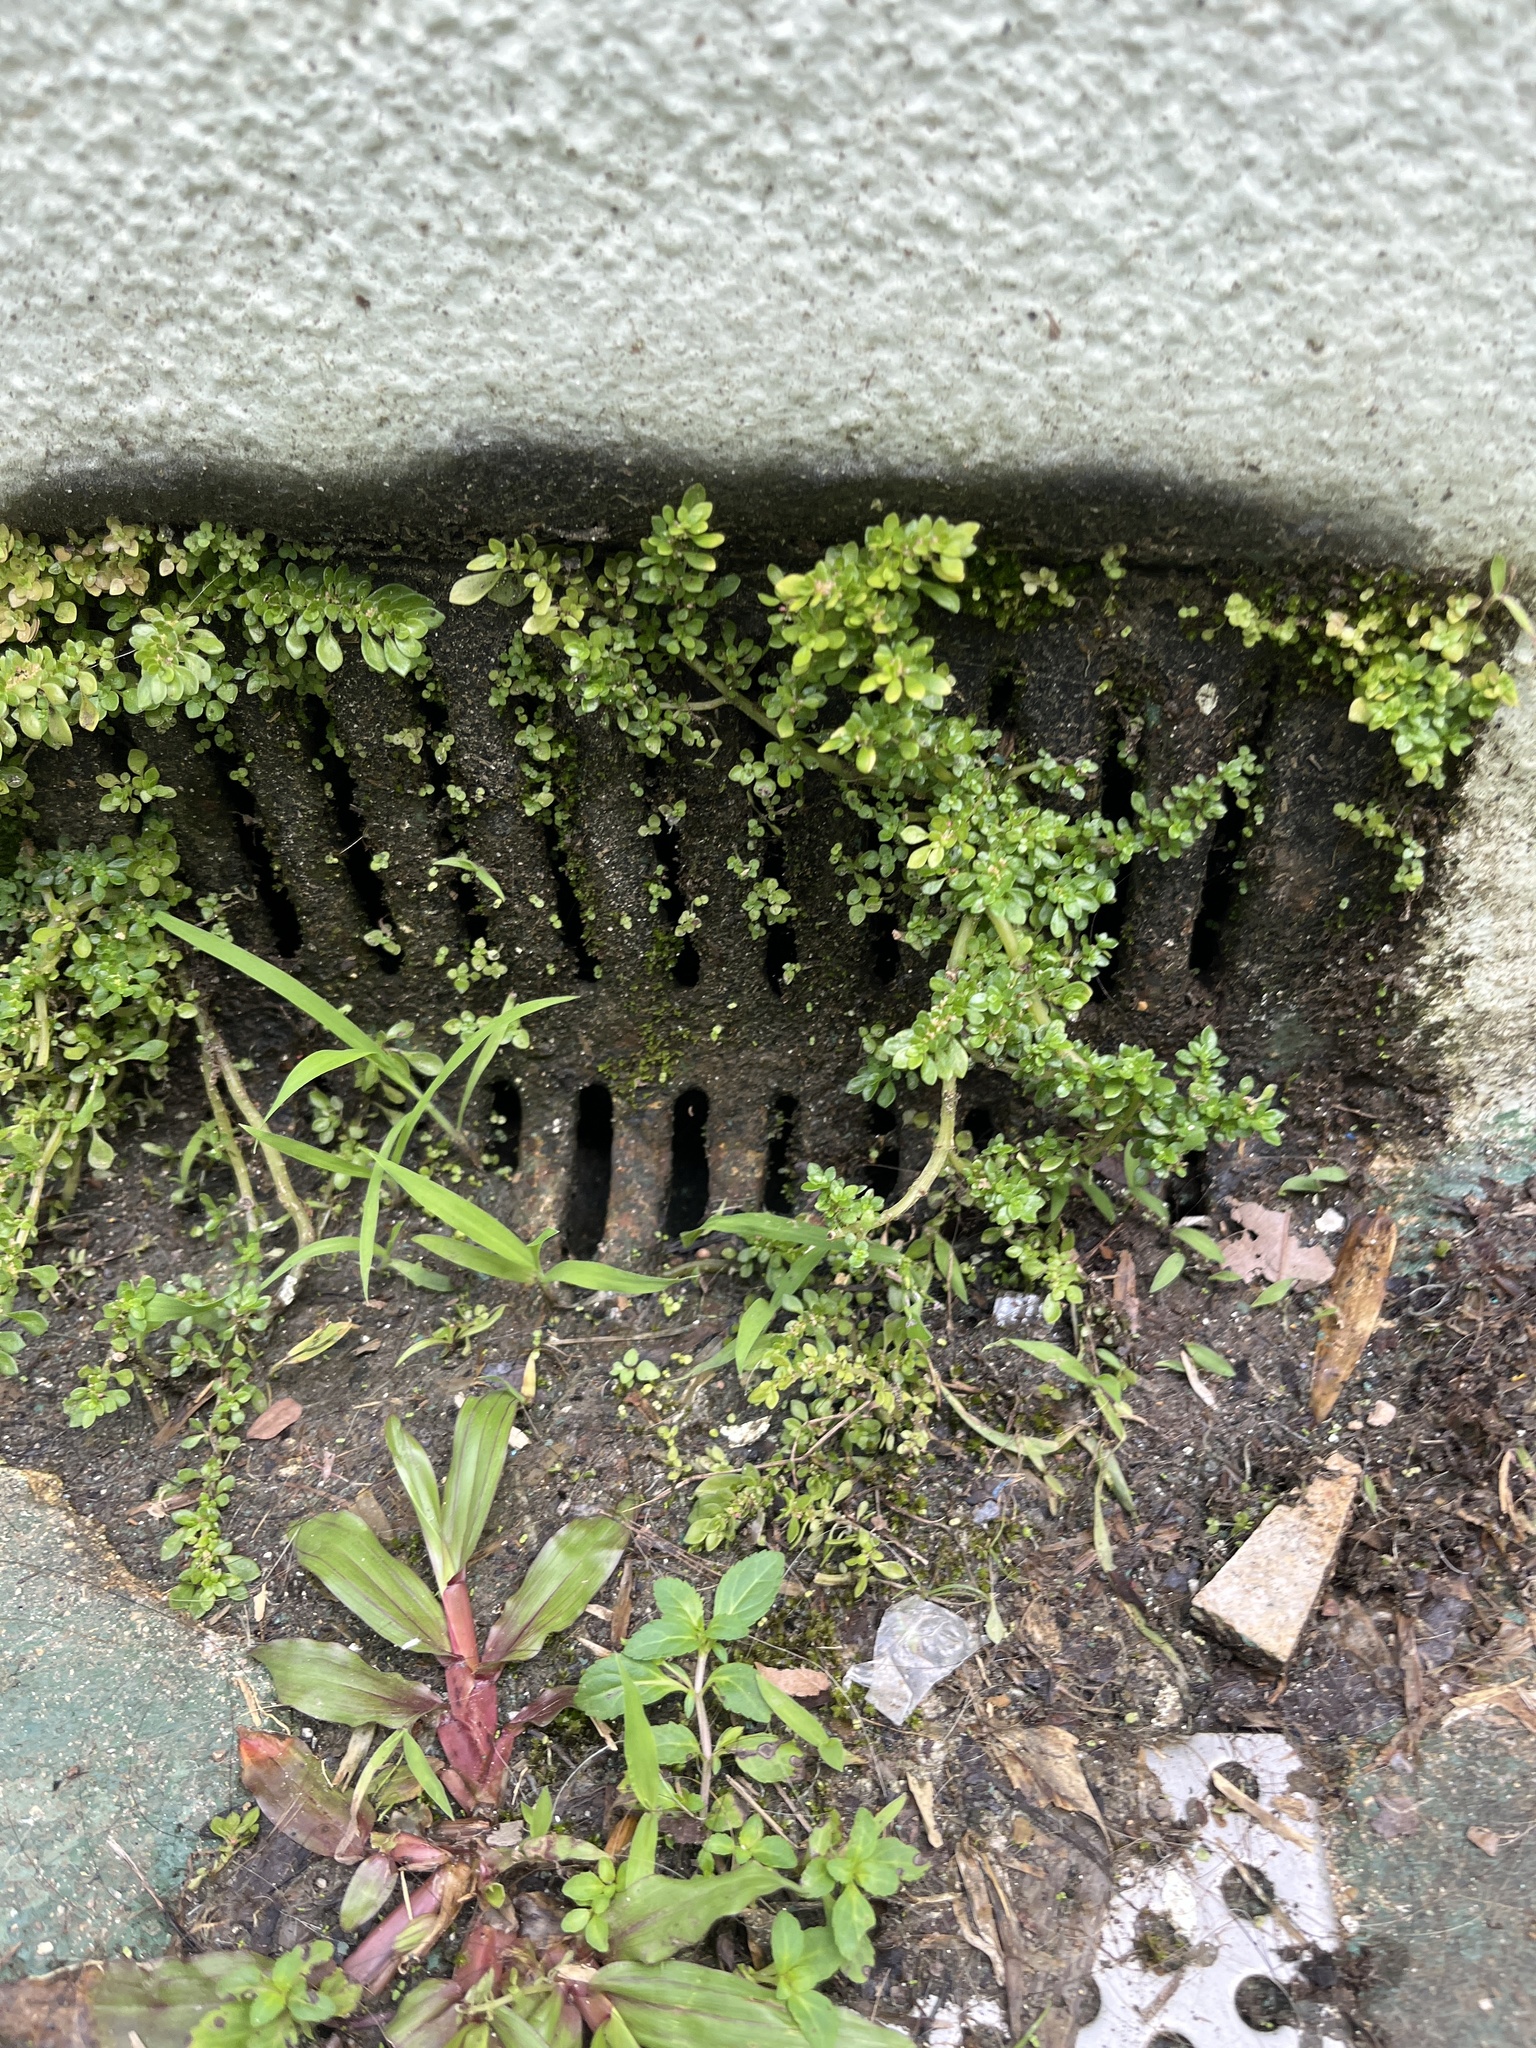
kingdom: Plantae
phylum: Tracheophyta
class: Magnoliopsida
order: Rosales
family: Urticaceae
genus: Pilea
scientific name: Pilea microphylla
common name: Artillery-plant
